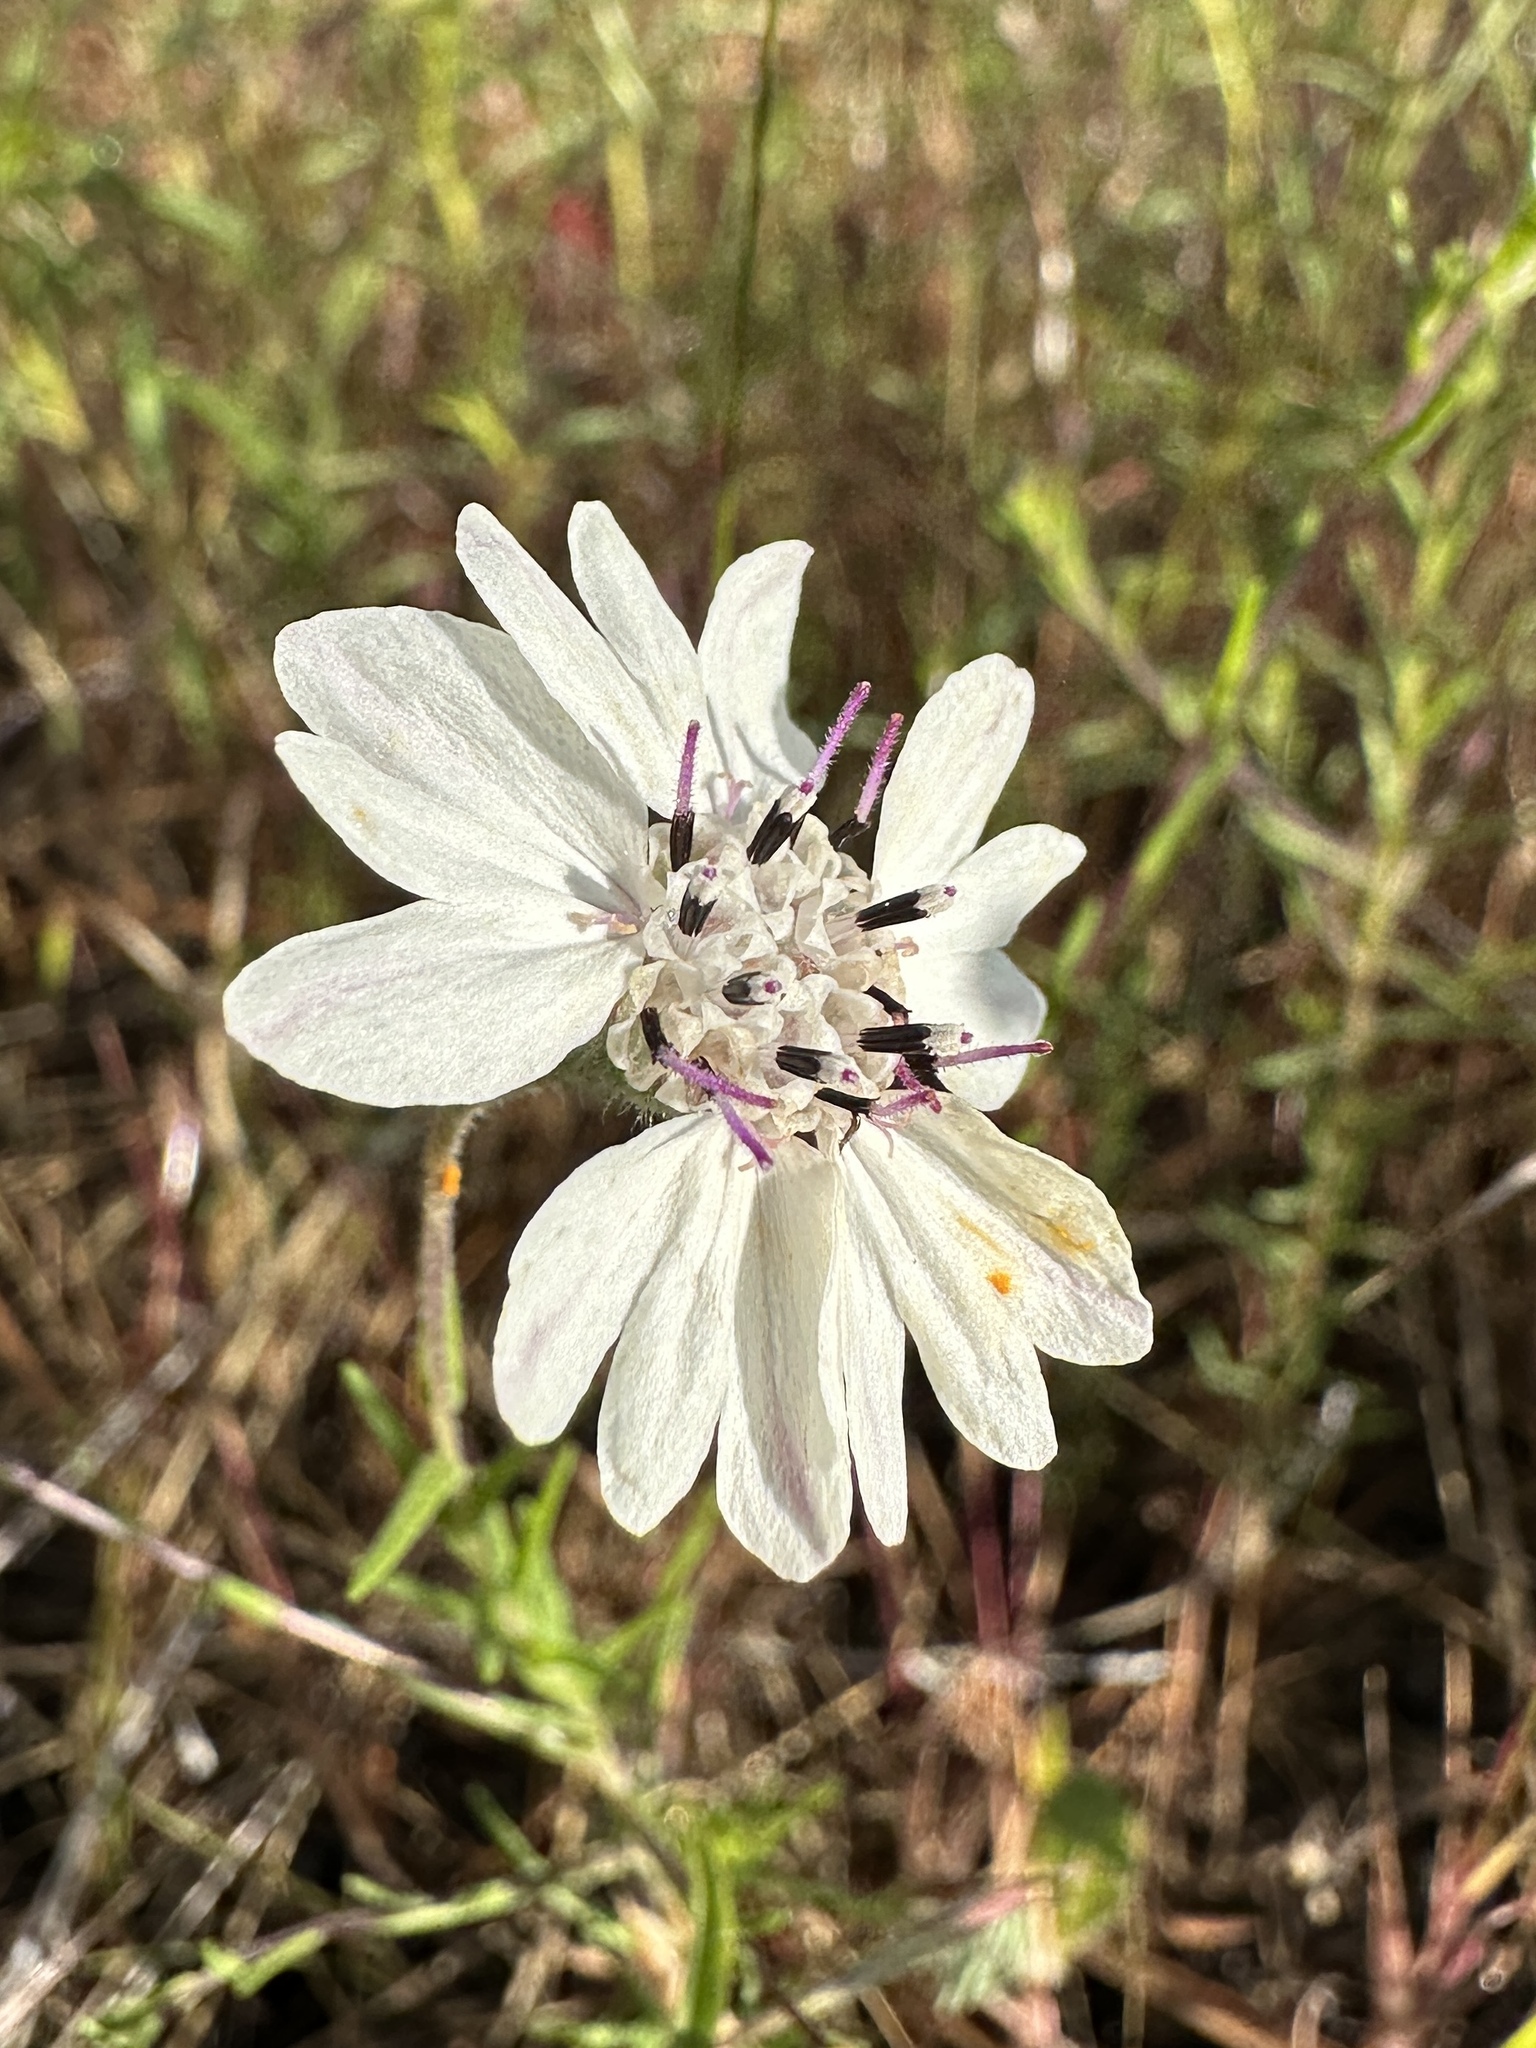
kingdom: Plantae
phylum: Tracheophyta
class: Magnoliopsida
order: Asterales
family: Asteraceae
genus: Blepharipappus
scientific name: Blepharipappus scaber
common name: Rough blepharipappus
